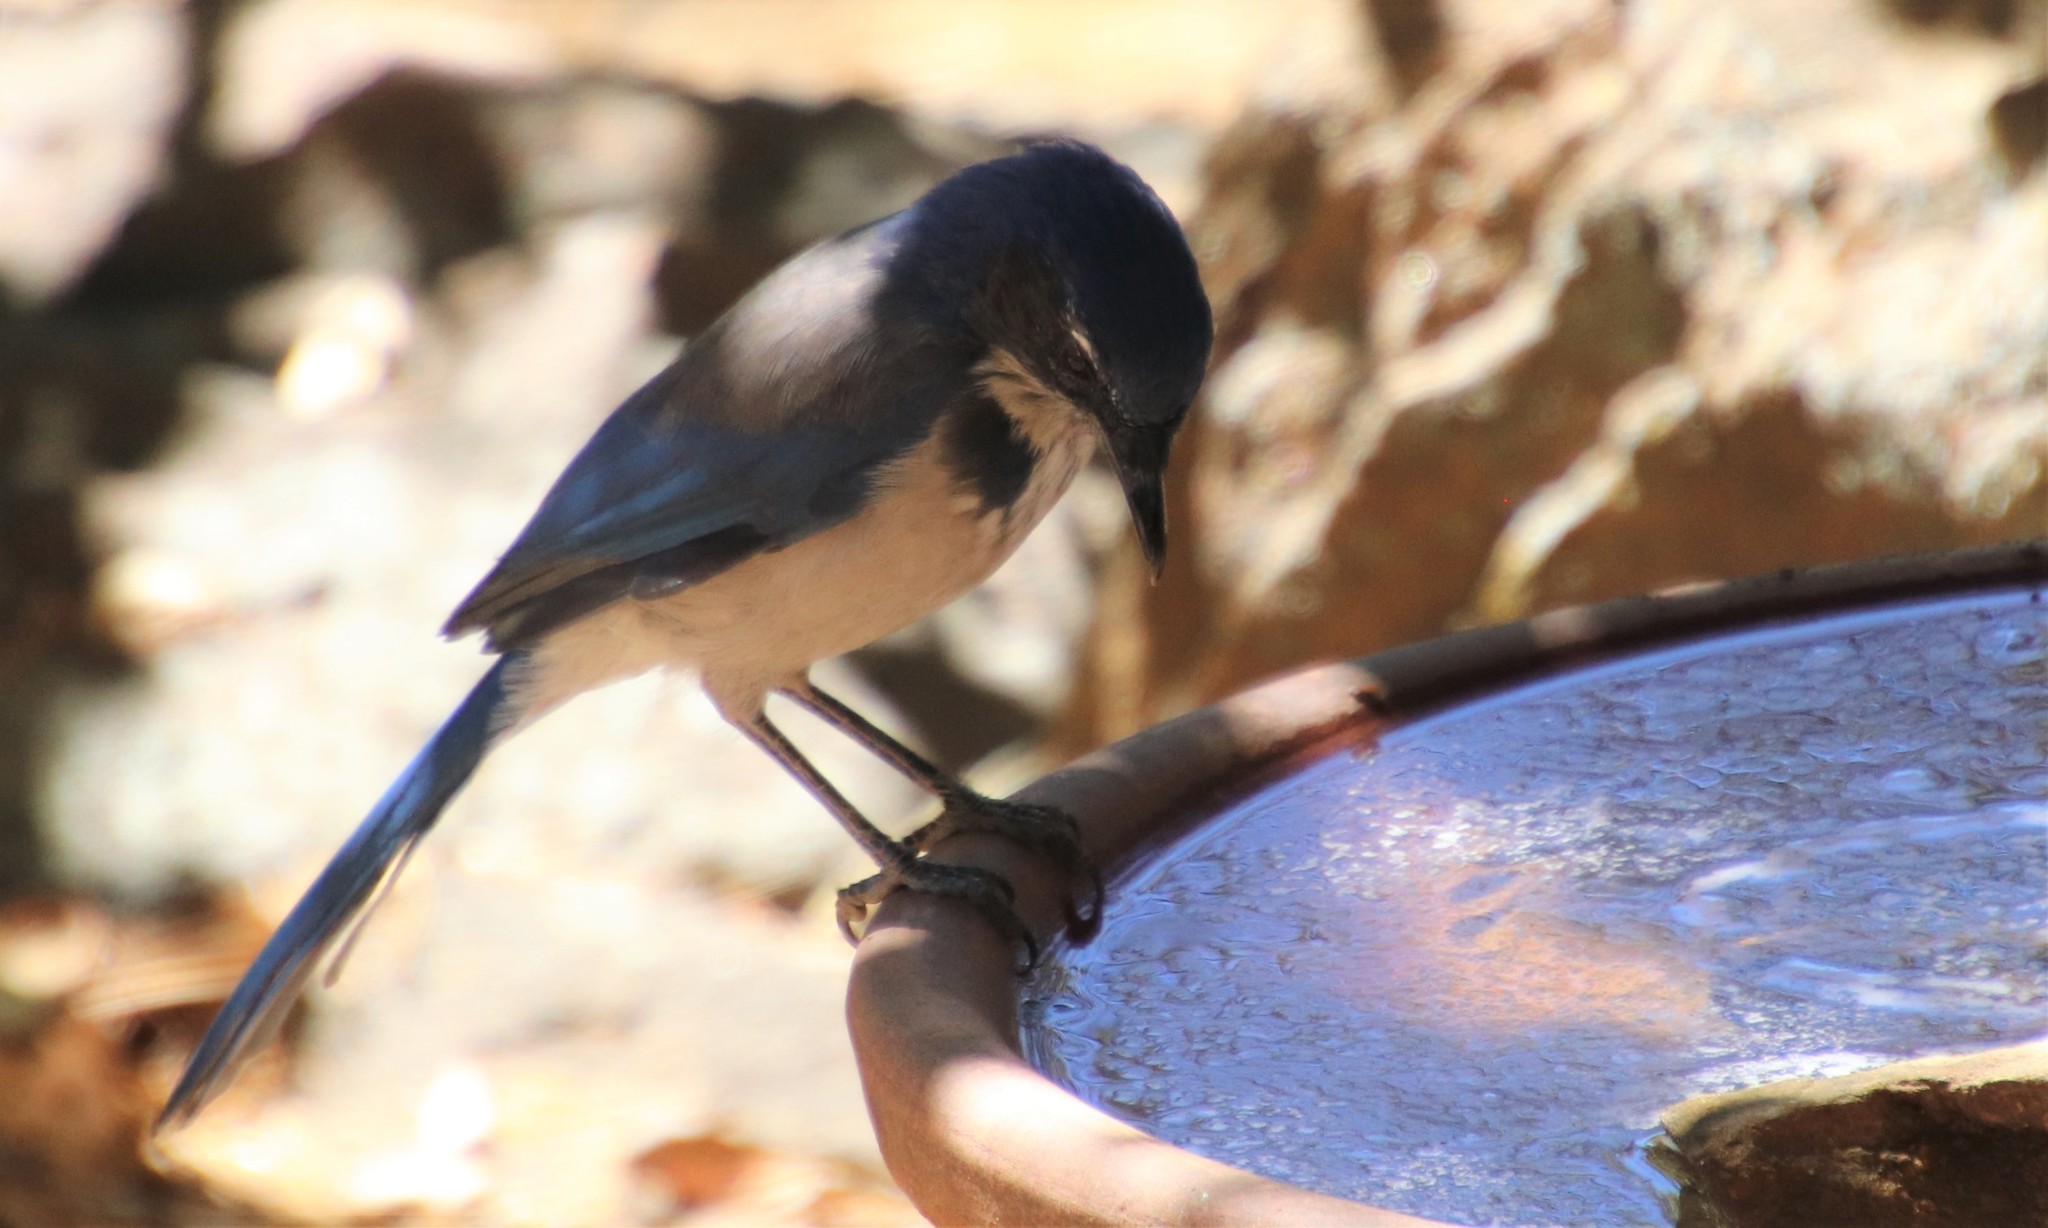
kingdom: Animalia
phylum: Chordata
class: Aves
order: Passeriformes
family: Corvidae
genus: Aphelocoma
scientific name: Aphelocoma californica
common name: California scrub-jay
